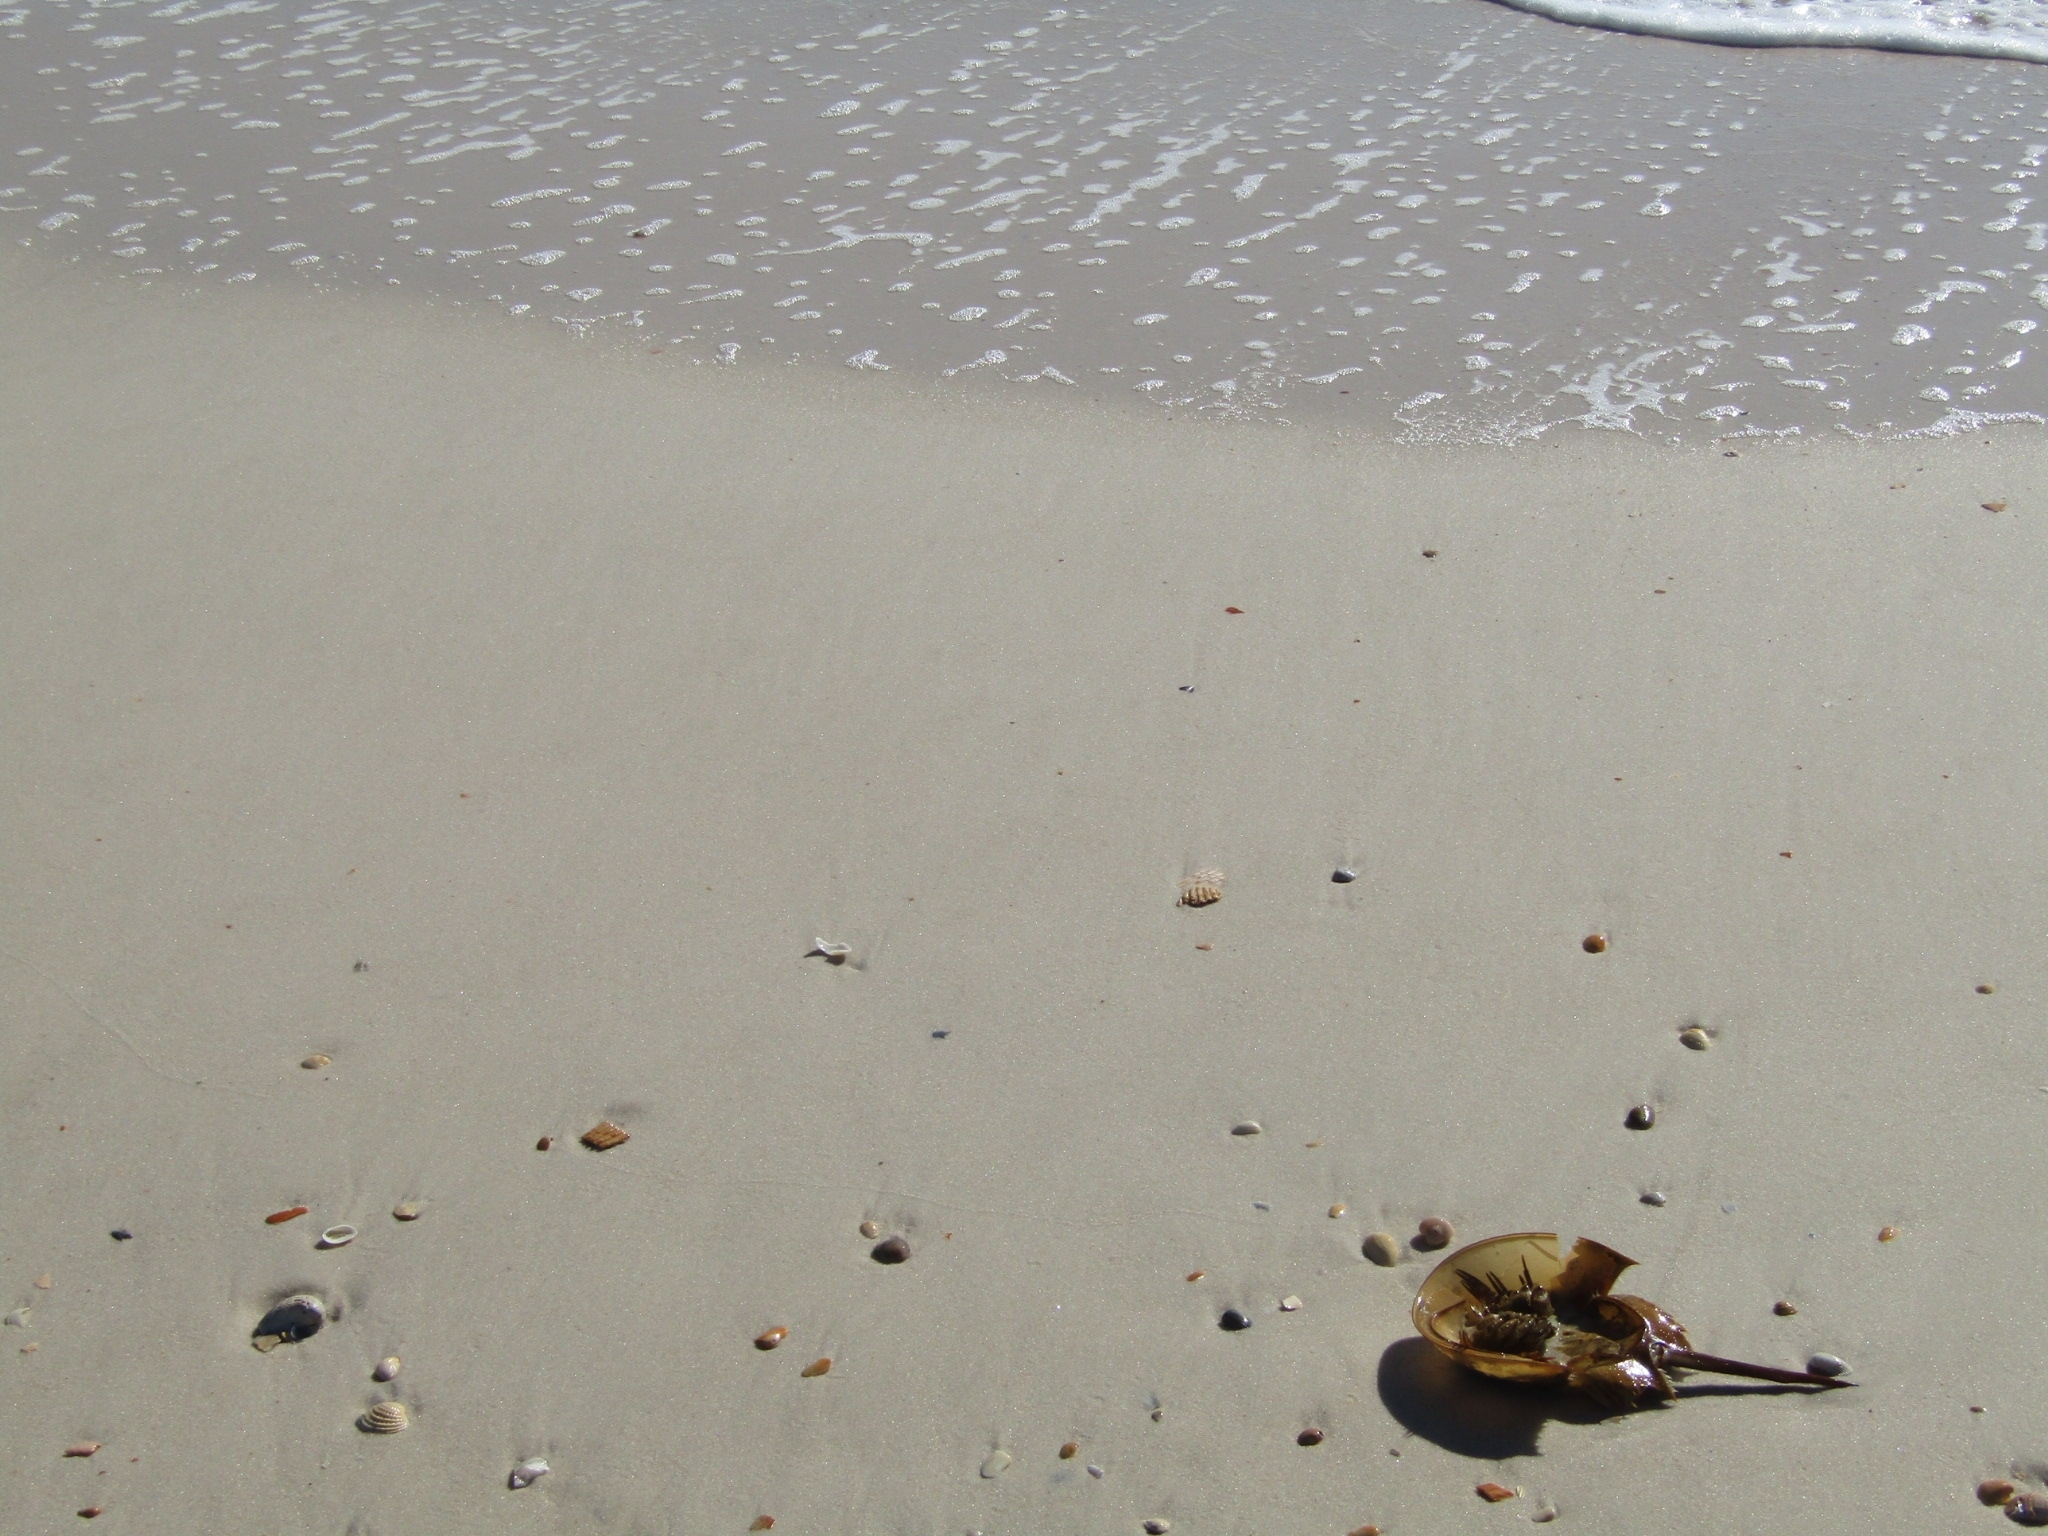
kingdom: Animalia
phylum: Arthropoda
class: Merostomata
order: Xiphosurida
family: Limulidae
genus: Limulus
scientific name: Limulus polyphemus
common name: Horseshoe crab
